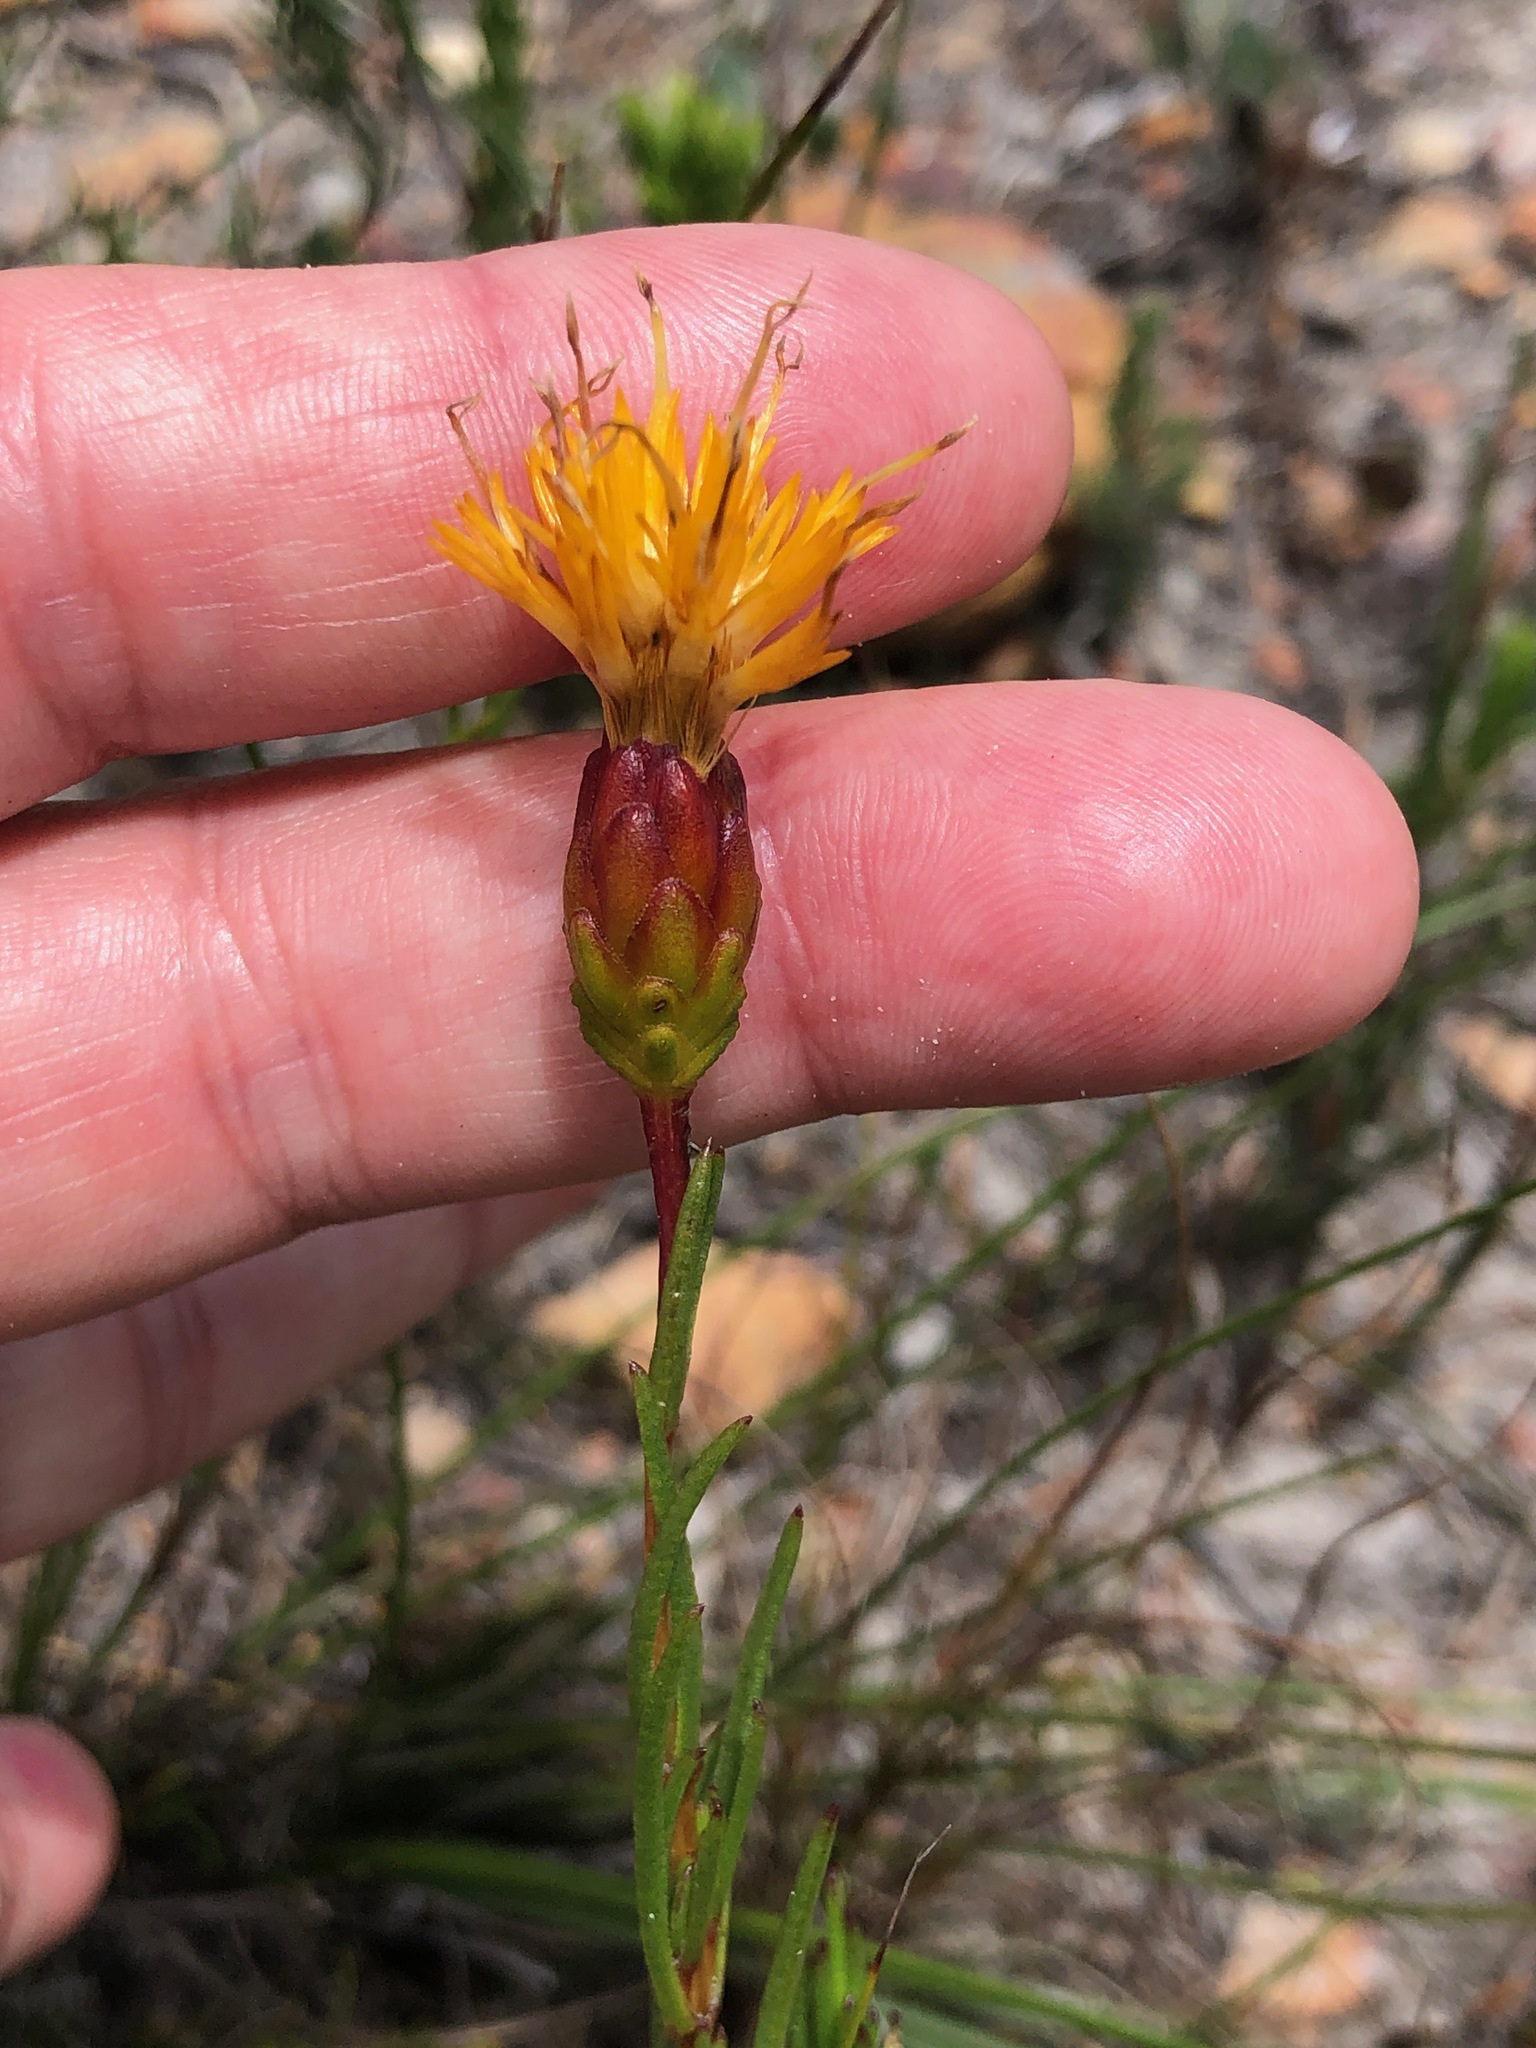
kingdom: Plantae
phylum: Tracheophyta
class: Magnoliopsida
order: Asterales
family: Asteraceae
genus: Pteronia
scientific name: Pteronia tenuifolia
